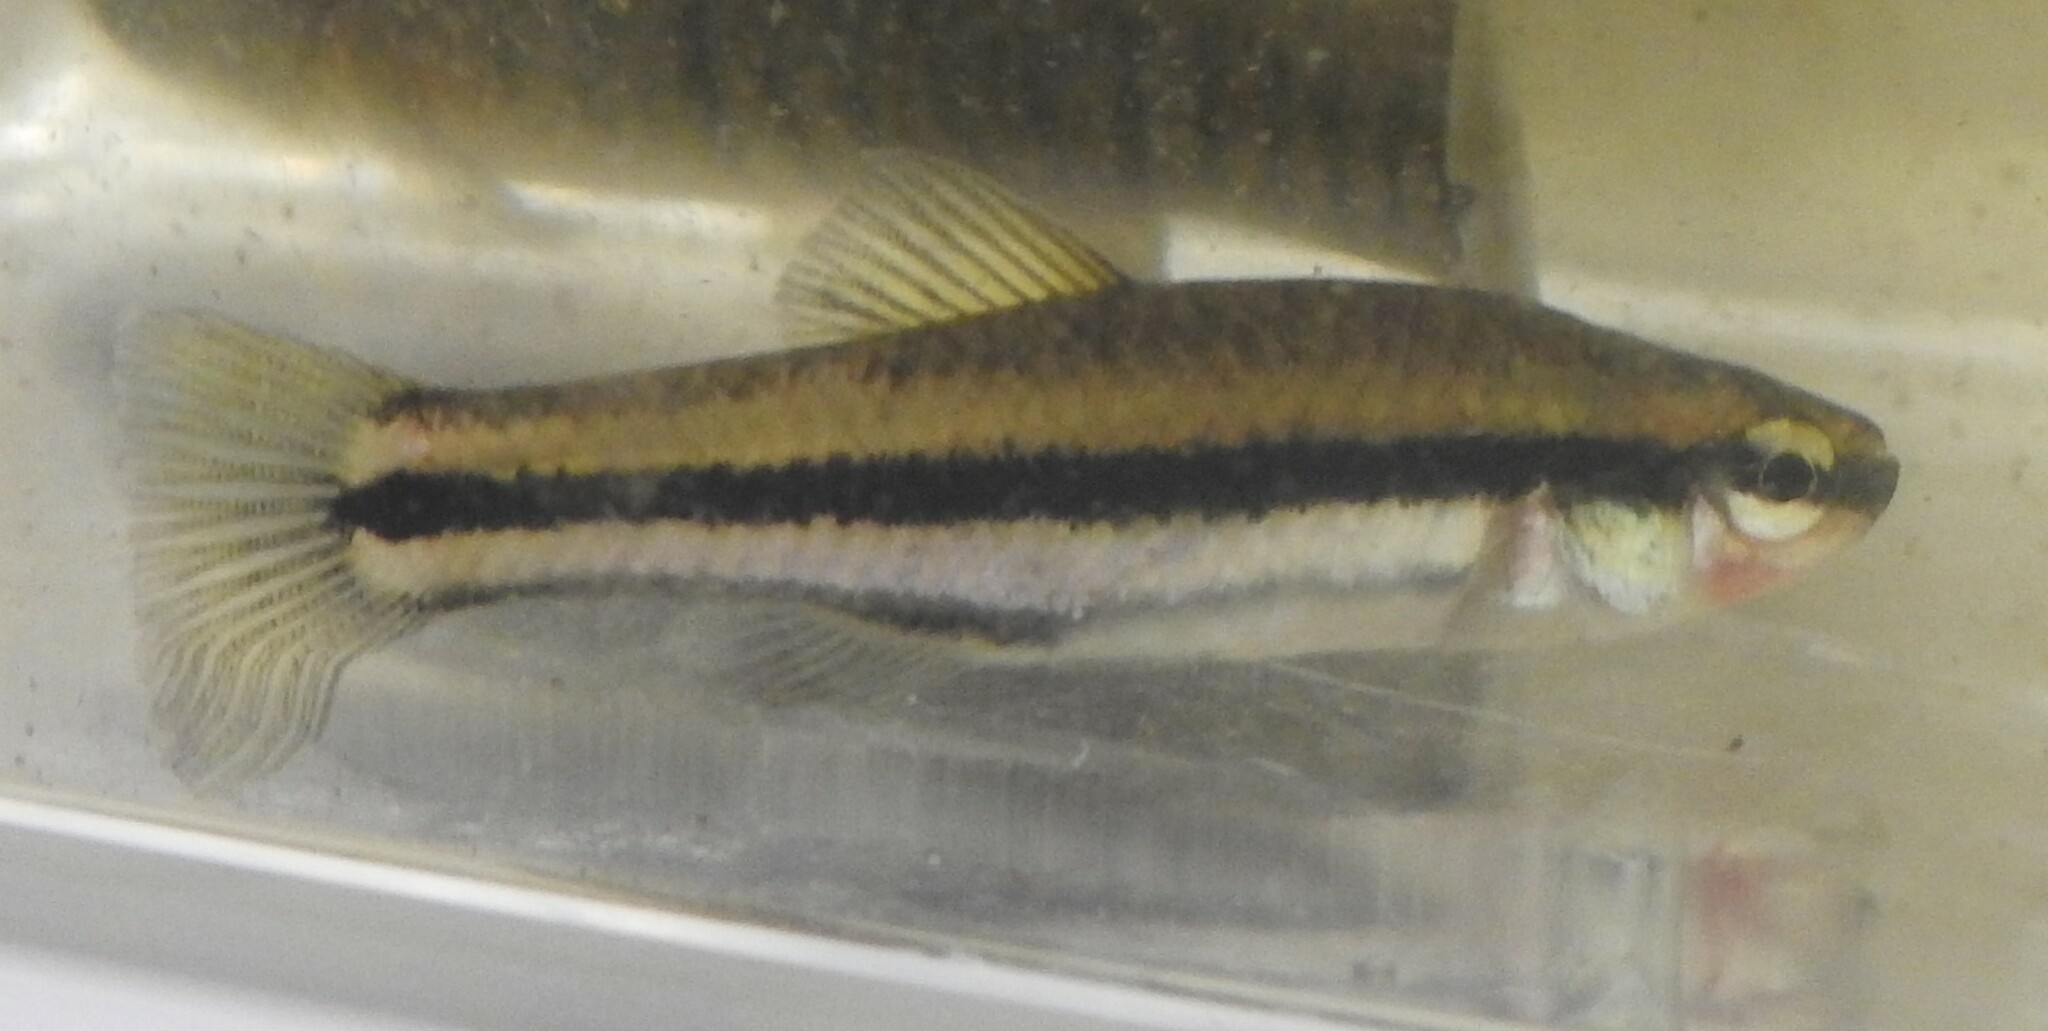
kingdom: Animalia
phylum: Chordata
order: Cyprinodontiformes
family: Fundulidae
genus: Lucania
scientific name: Lucania goodei
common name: Bluefin killifish
